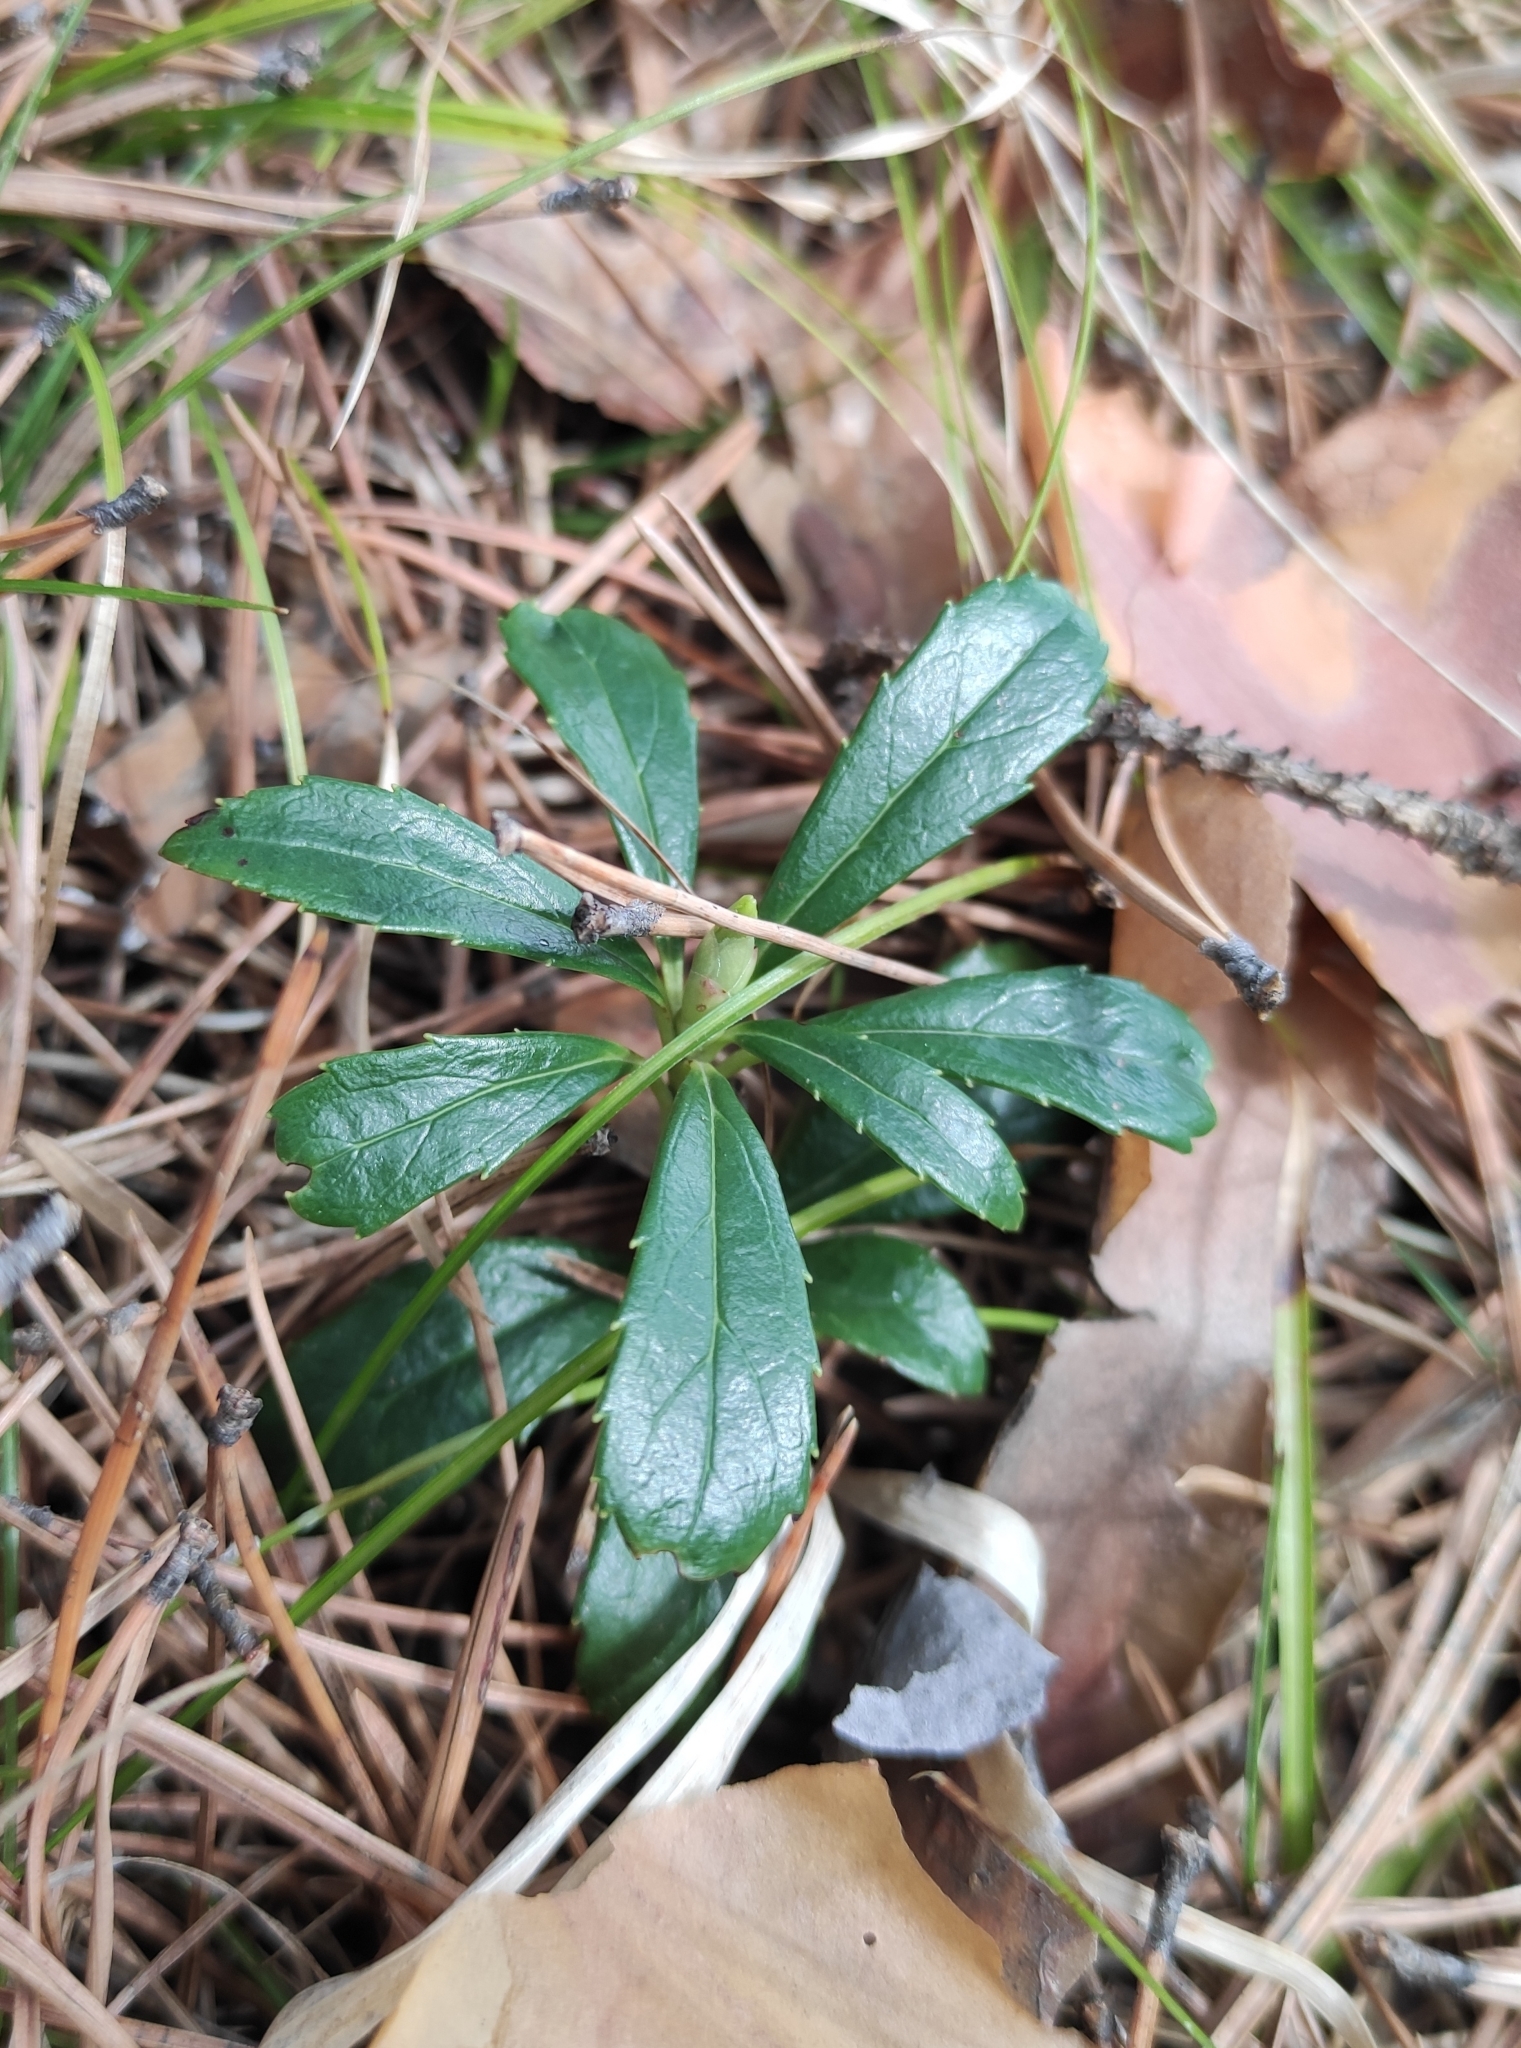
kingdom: Plantae
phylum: Tracheophyta
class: Magnoliopsida
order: Ericales
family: Ericaceae
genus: Chimaphila
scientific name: Chimaphila umbellata
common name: Pipsissewa
